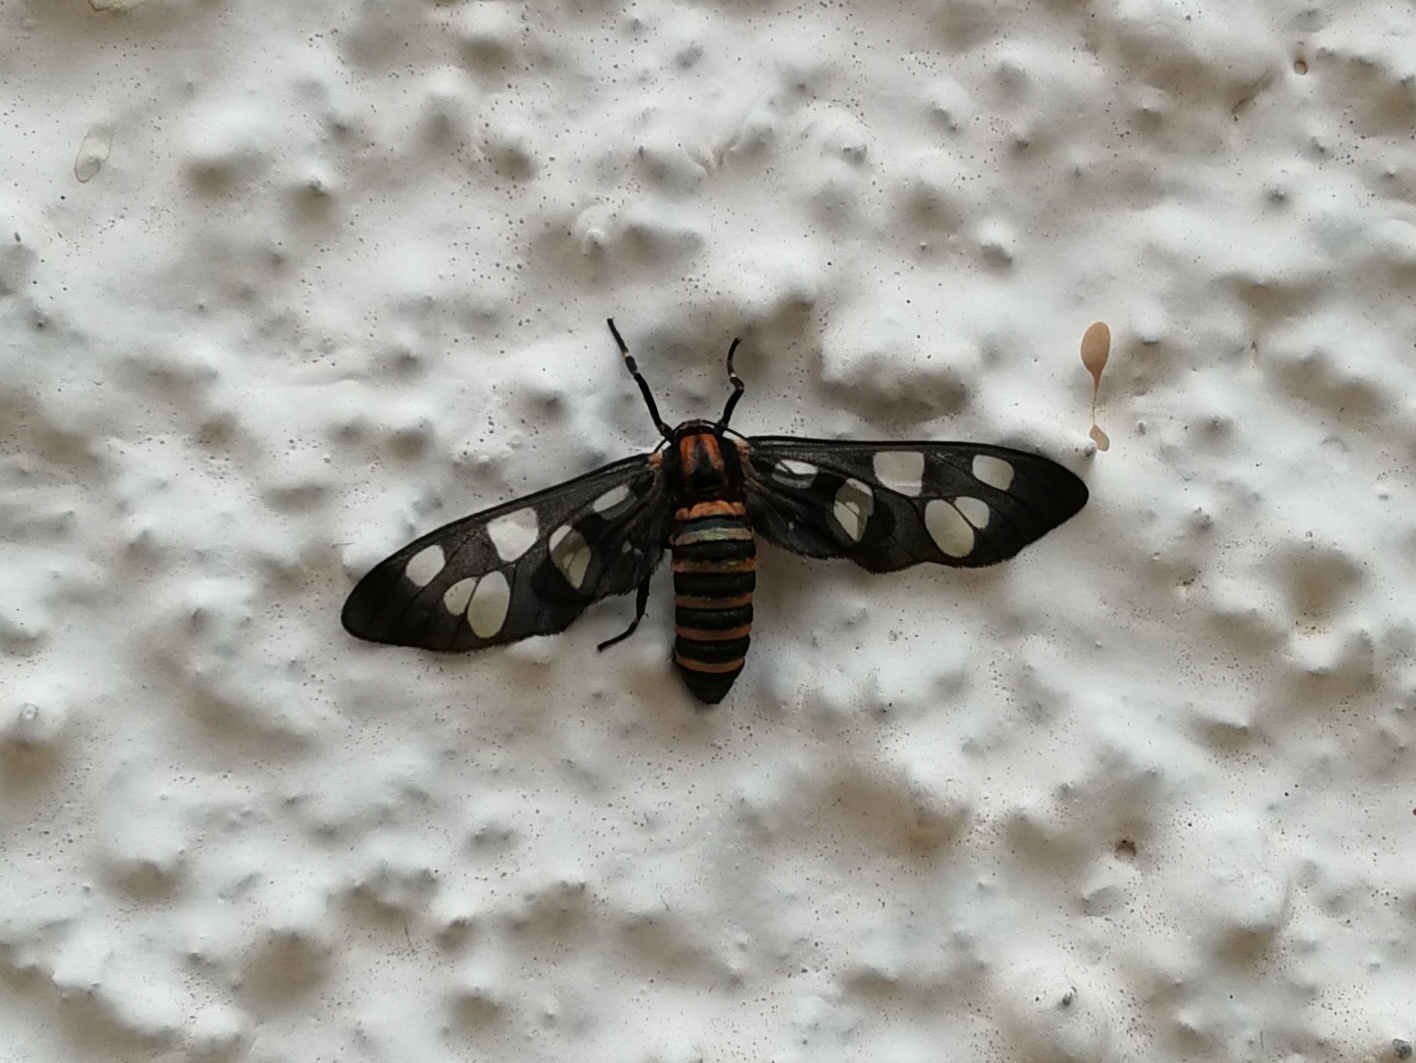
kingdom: Animalia
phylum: Arthropoda
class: Insecta
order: Lepidoptera
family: Erebidae
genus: Amata
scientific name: Amata passalis
